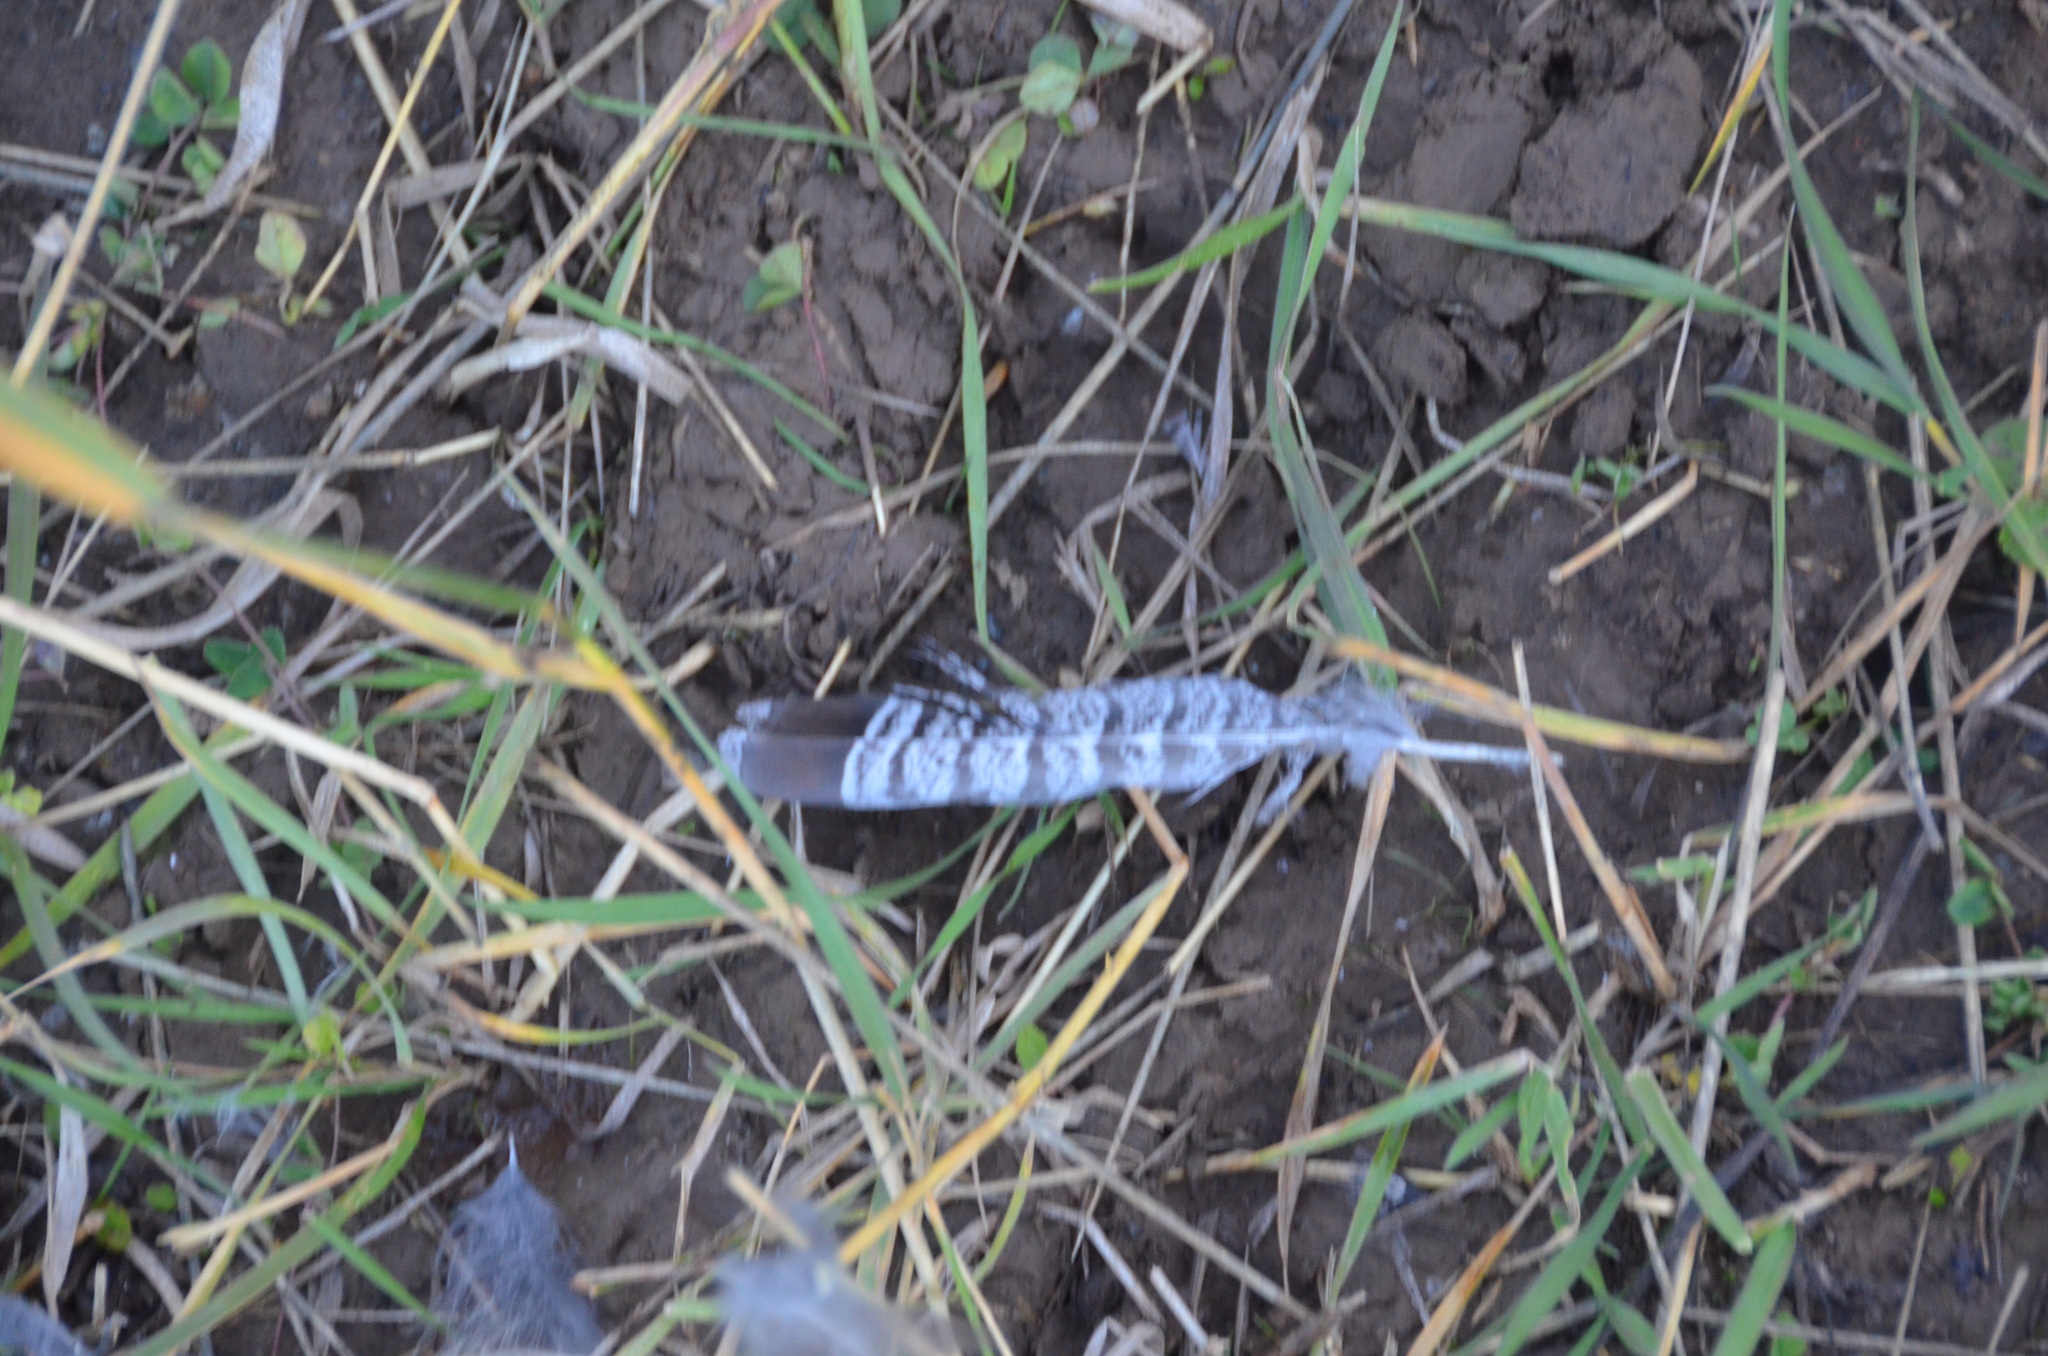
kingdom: Animalia
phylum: Chordata
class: Aves
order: Galliformes
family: Phasianidae
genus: Bonasa
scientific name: Bonasa umbellus
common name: Ruffed grouse
